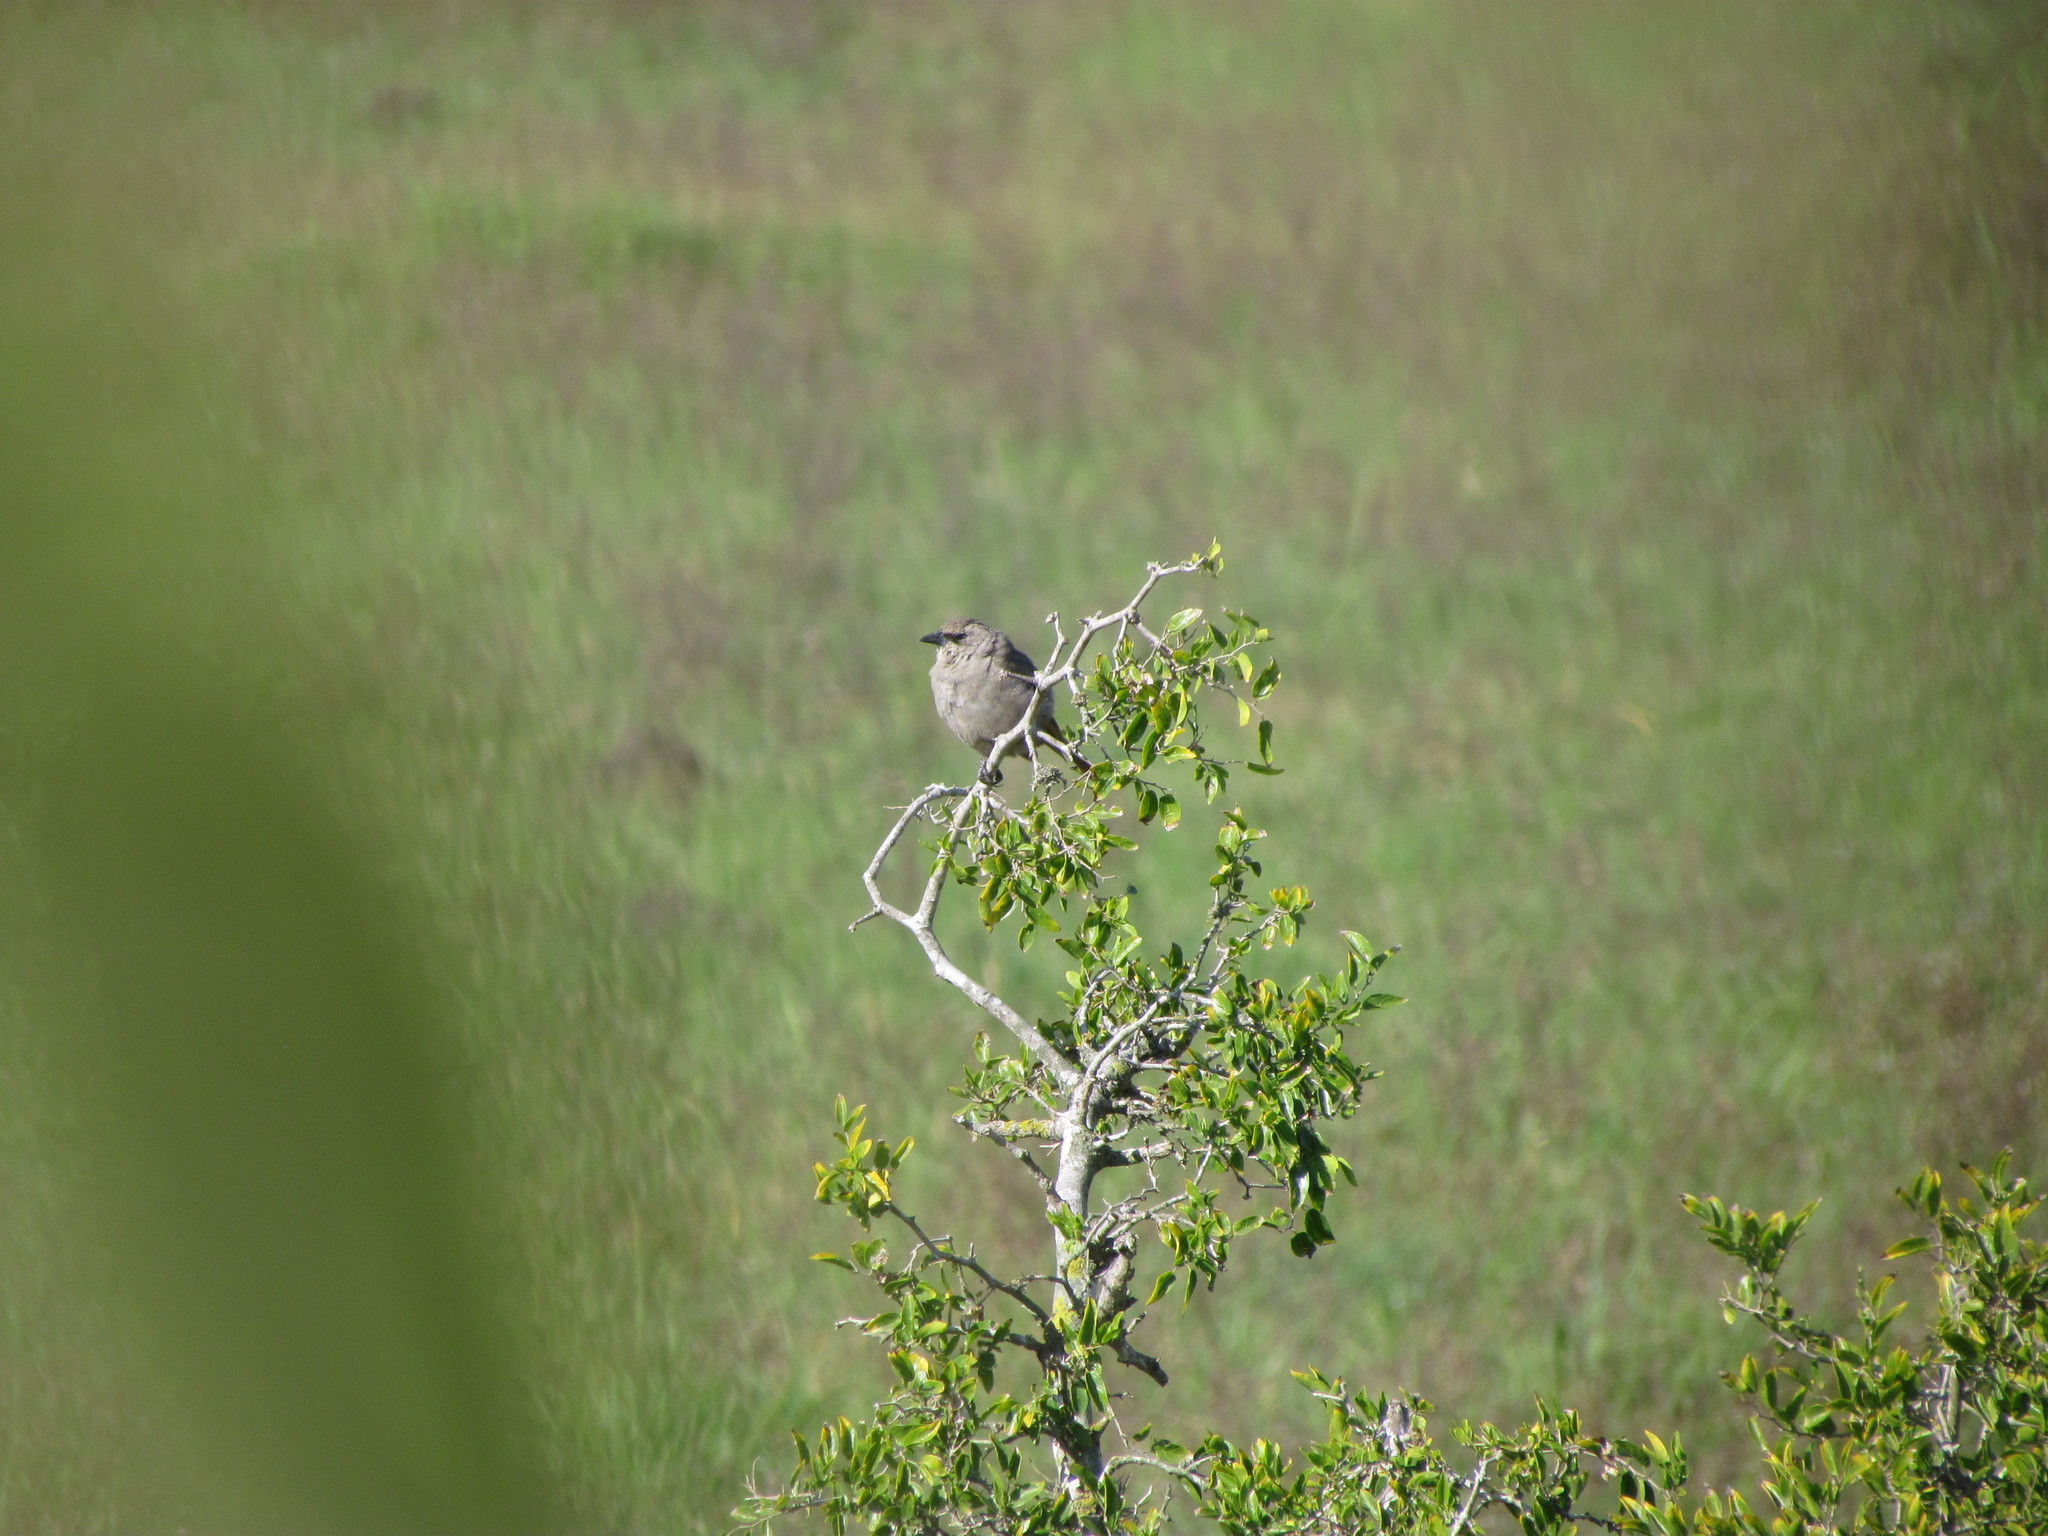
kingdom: Animalia
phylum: Chordata
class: Aves
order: Passeriformes
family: Icteridae
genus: Agelaioides
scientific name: Agelaioides badius
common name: Baywing
